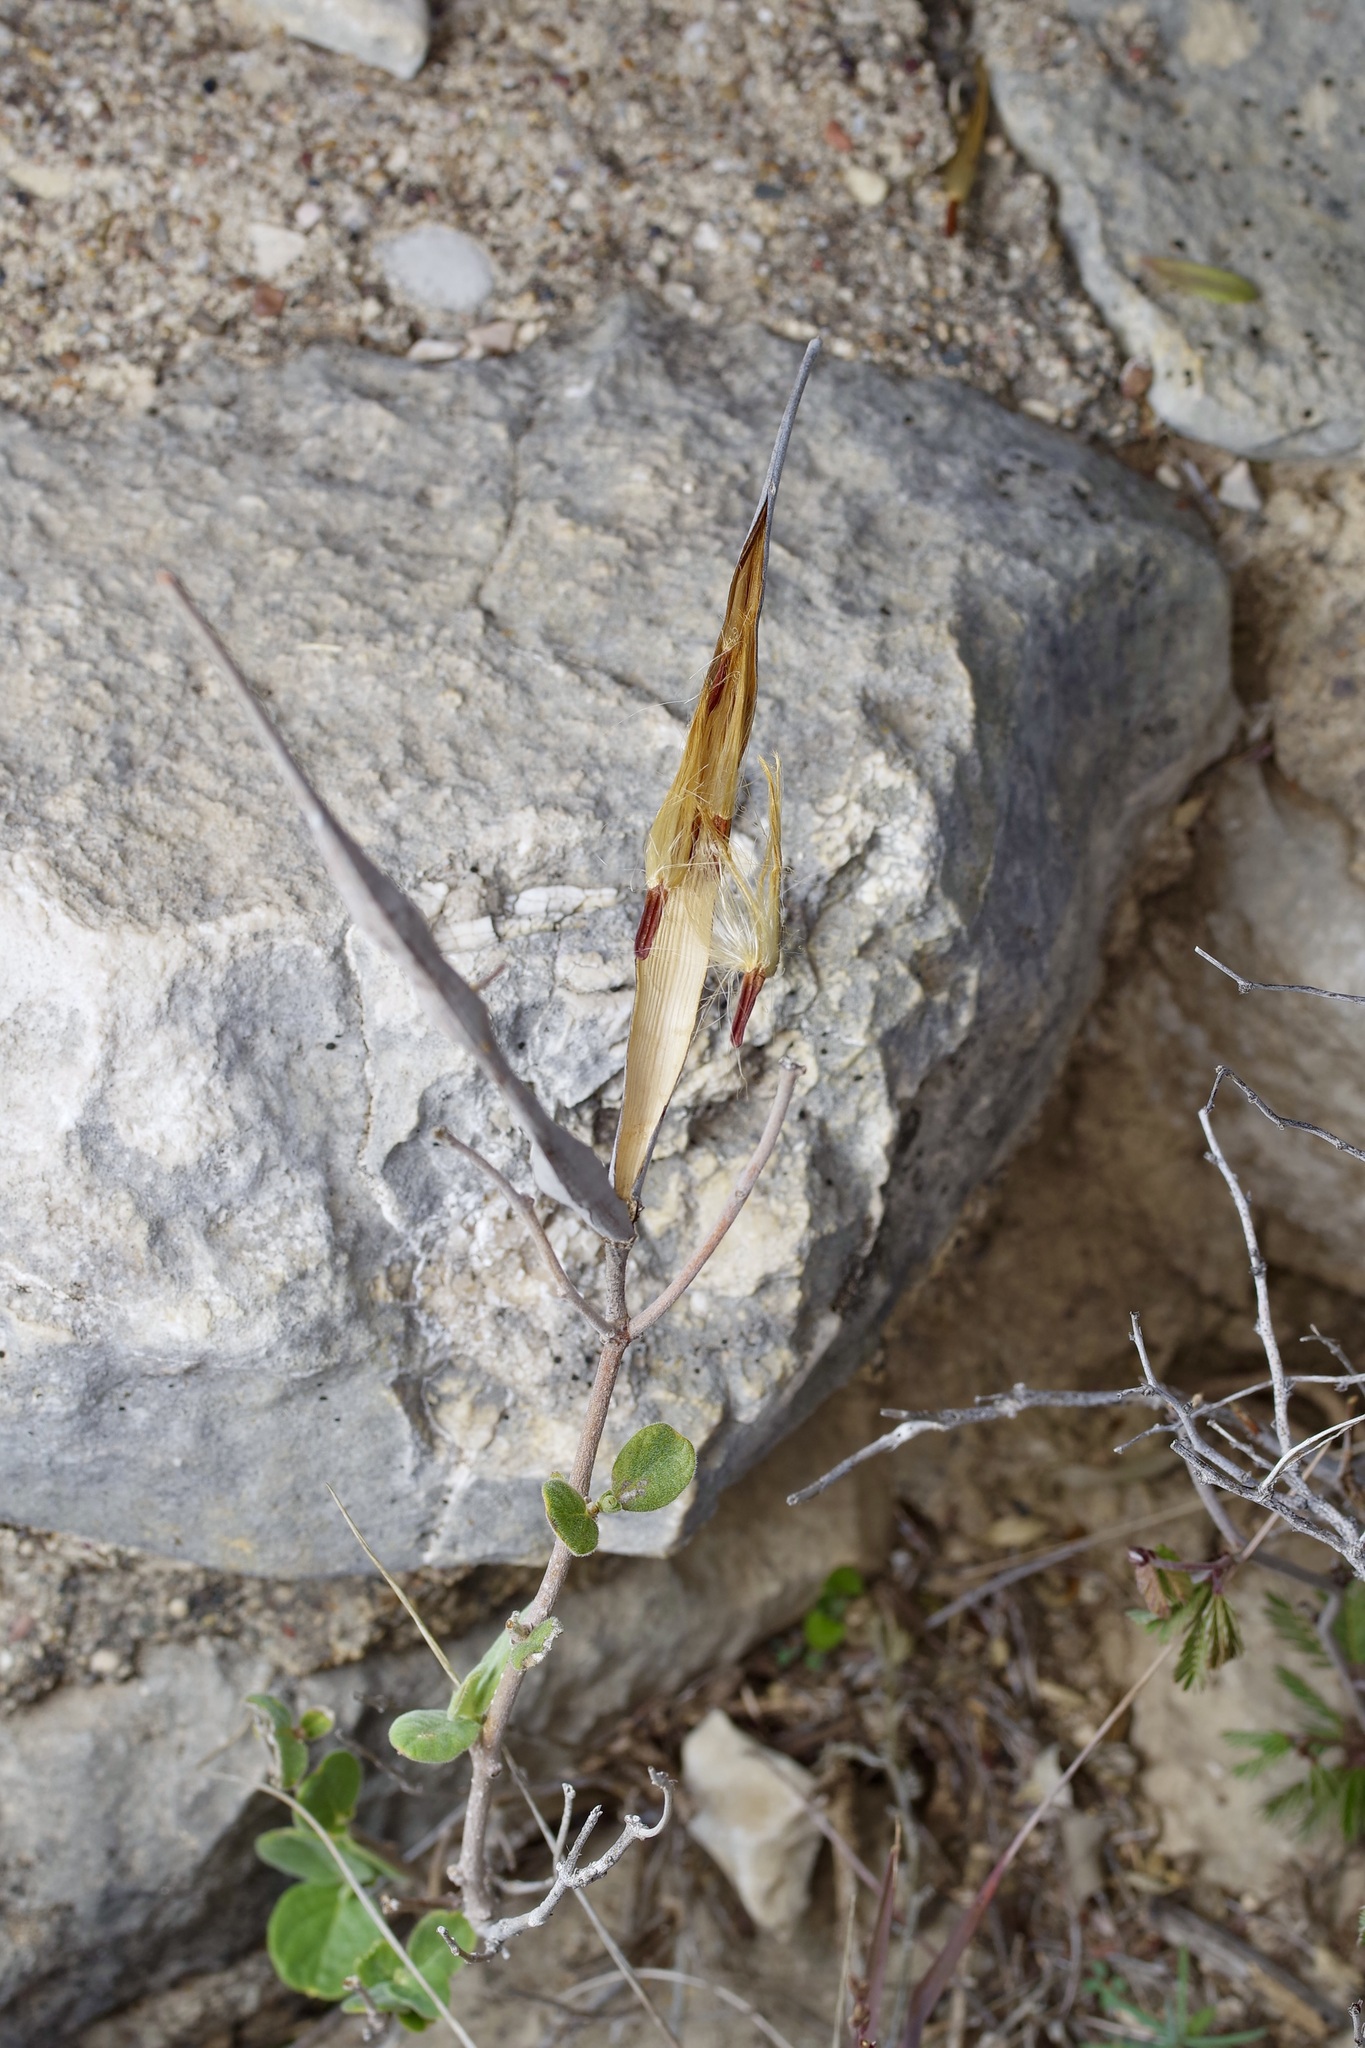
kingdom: Plantae
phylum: Tracheophyta
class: Magnoliopsida
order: Gentianales
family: Apocynaceae
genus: Mandevilla
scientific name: Mandevilla macrosiphon
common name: Plateau rocktrumpet
